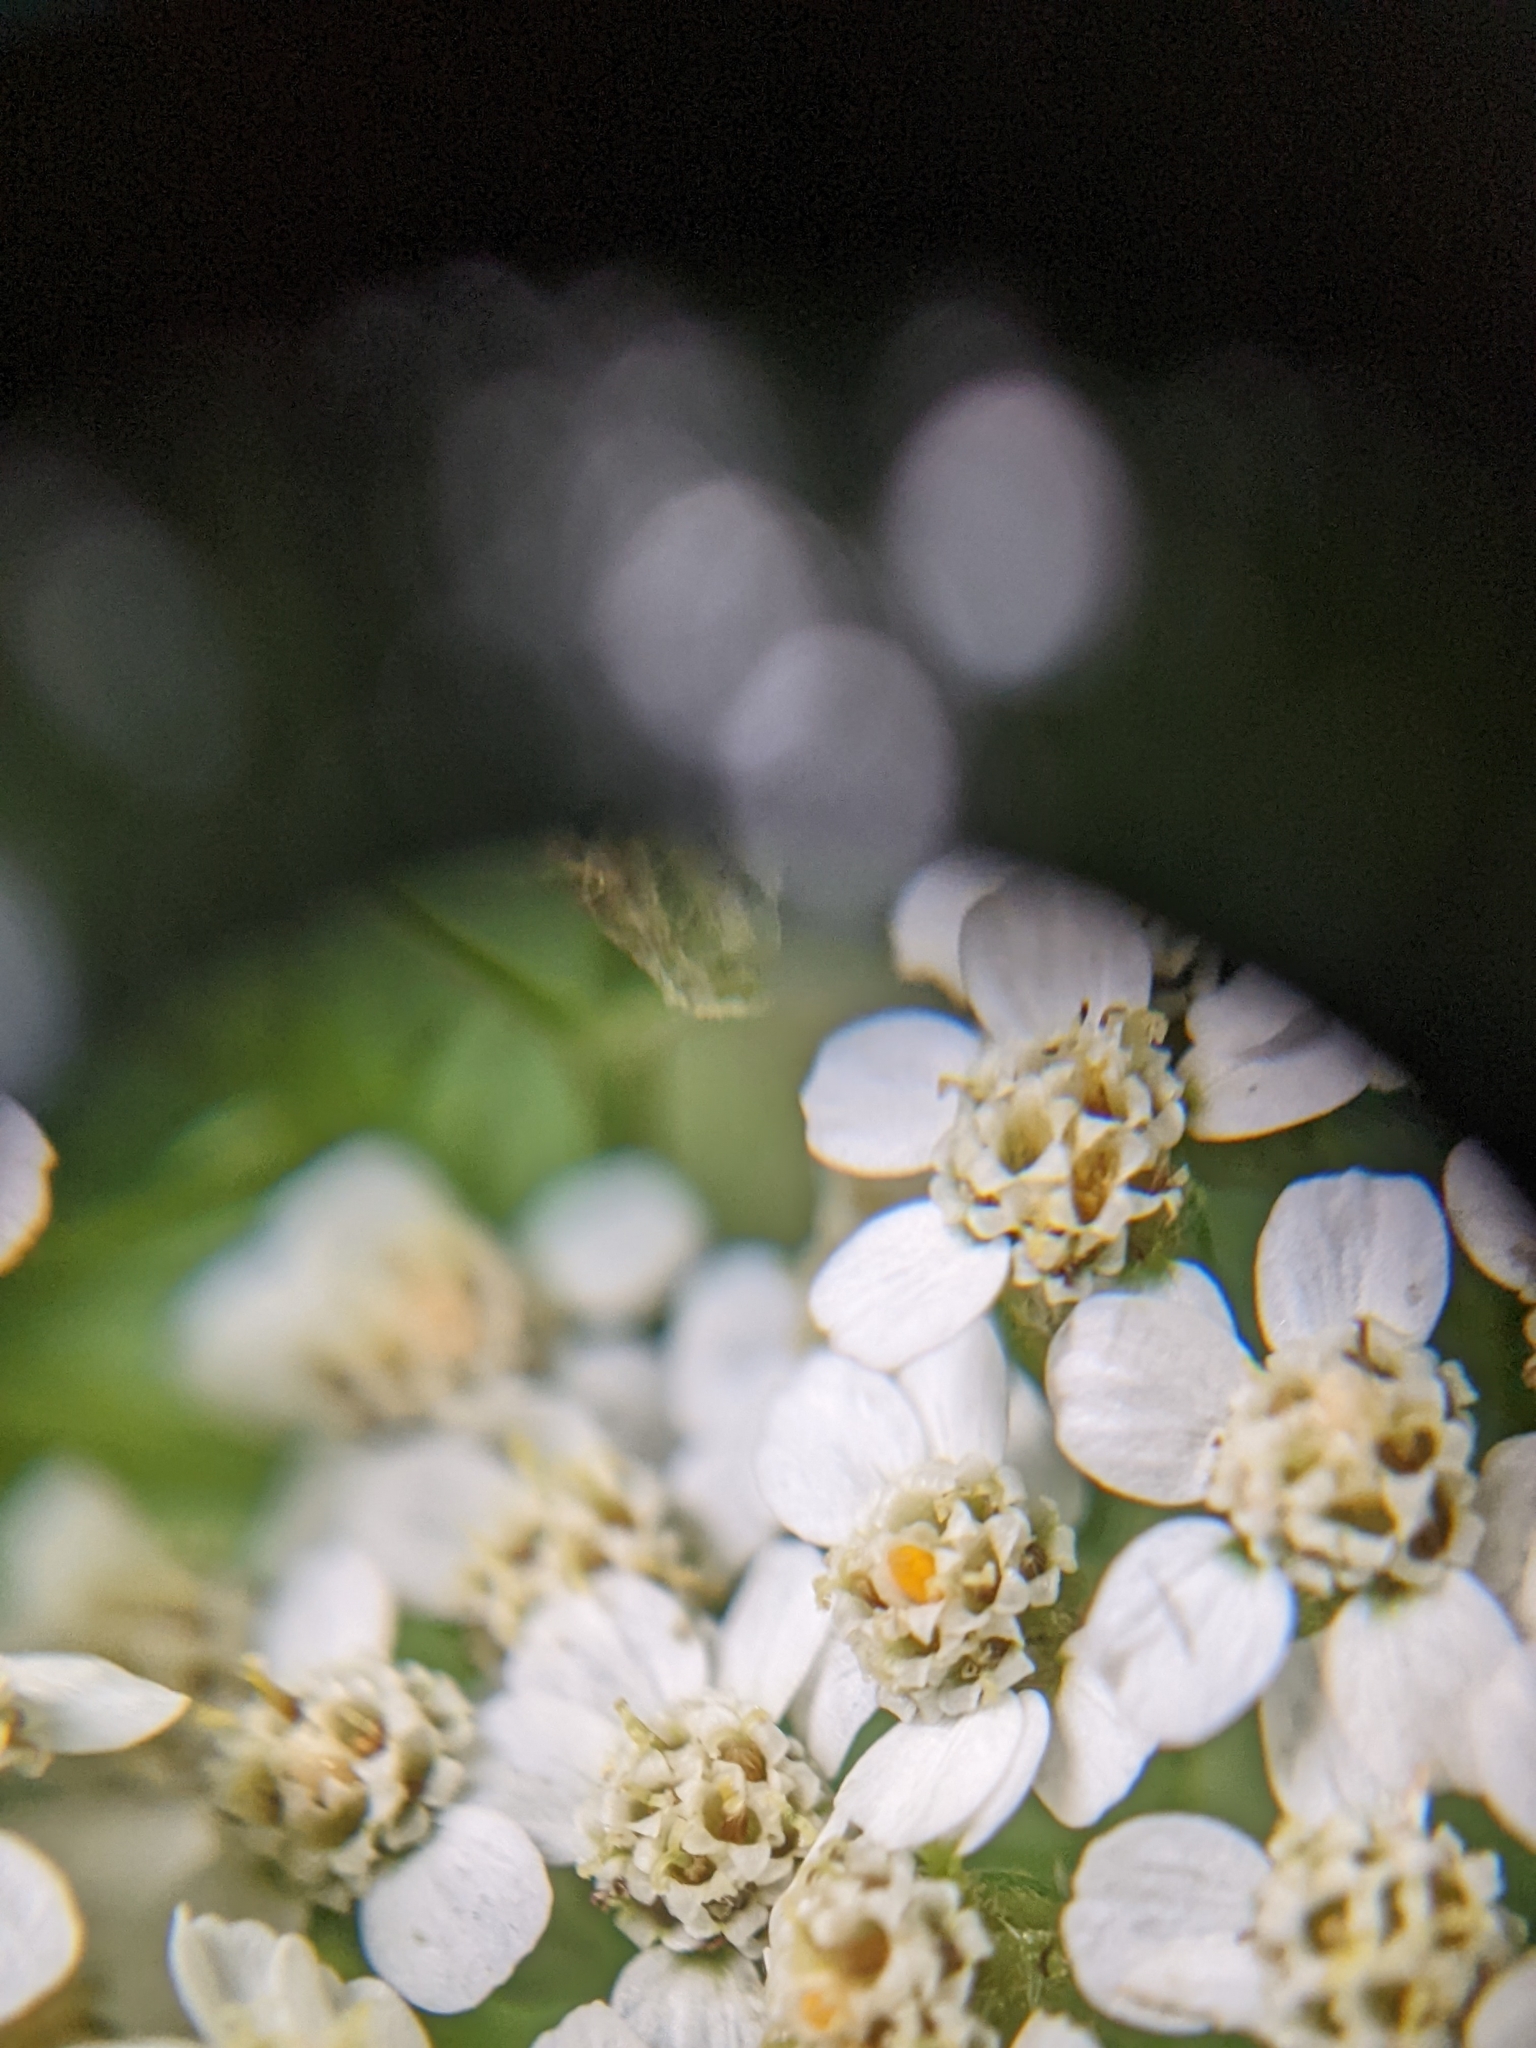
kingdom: Plantae
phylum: Tracheophyta
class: Magnoliopsida
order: Asterales
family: Asteraceae
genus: Achillea
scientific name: Achillea millefolium
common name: Yarrow
